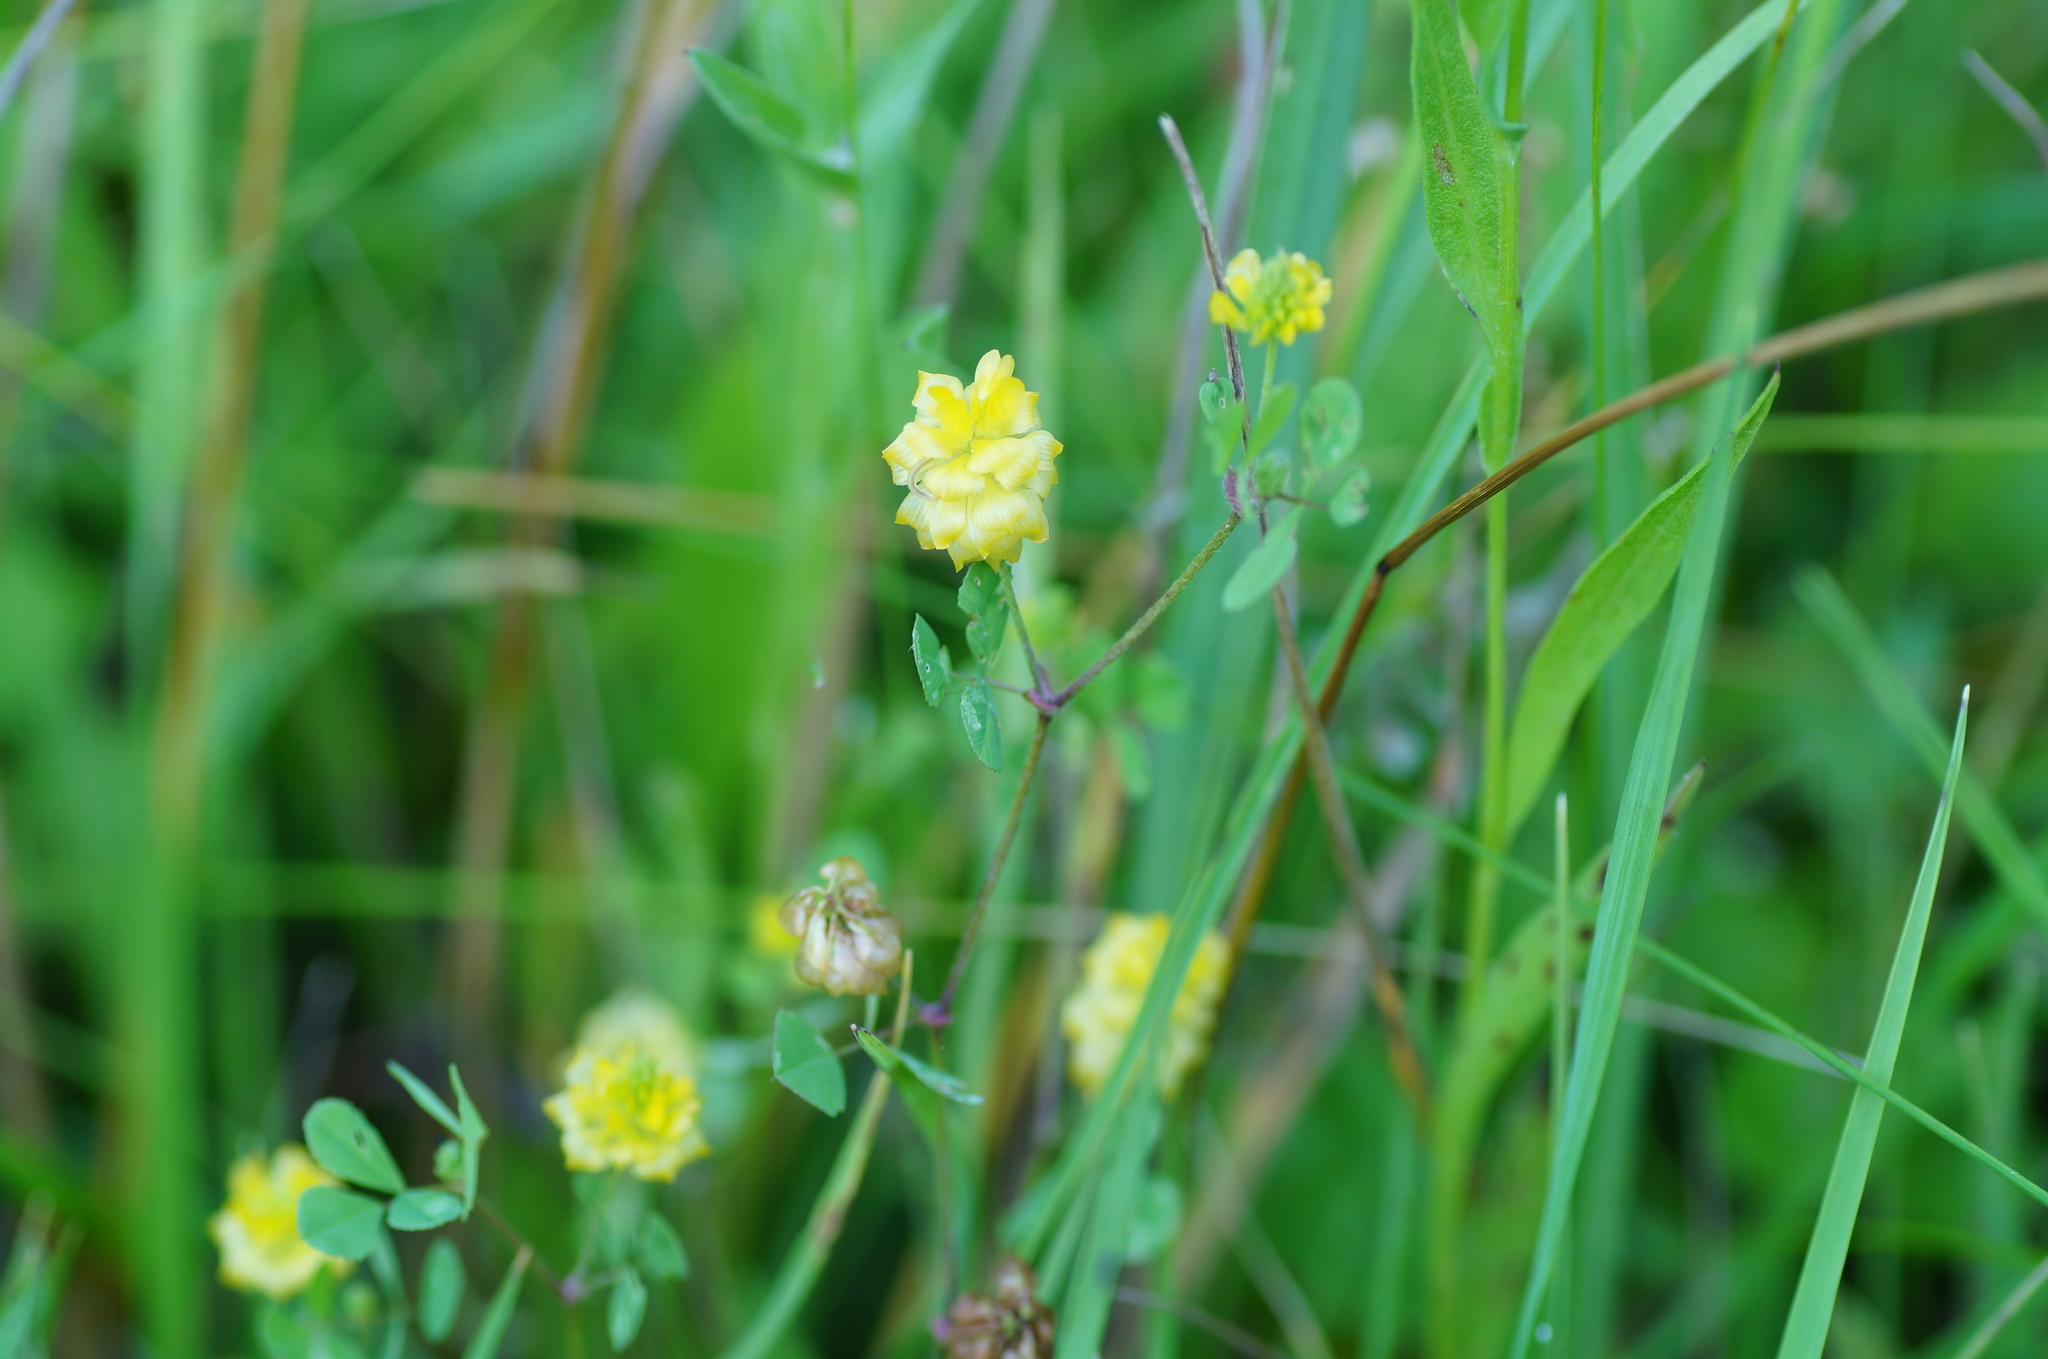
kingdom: Plantae
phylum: Tracheophyta
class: Magnoliopsida
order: Fabales
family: Fabaceae
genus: Trifolium
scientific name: Trifolium campestre
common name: Field clover
